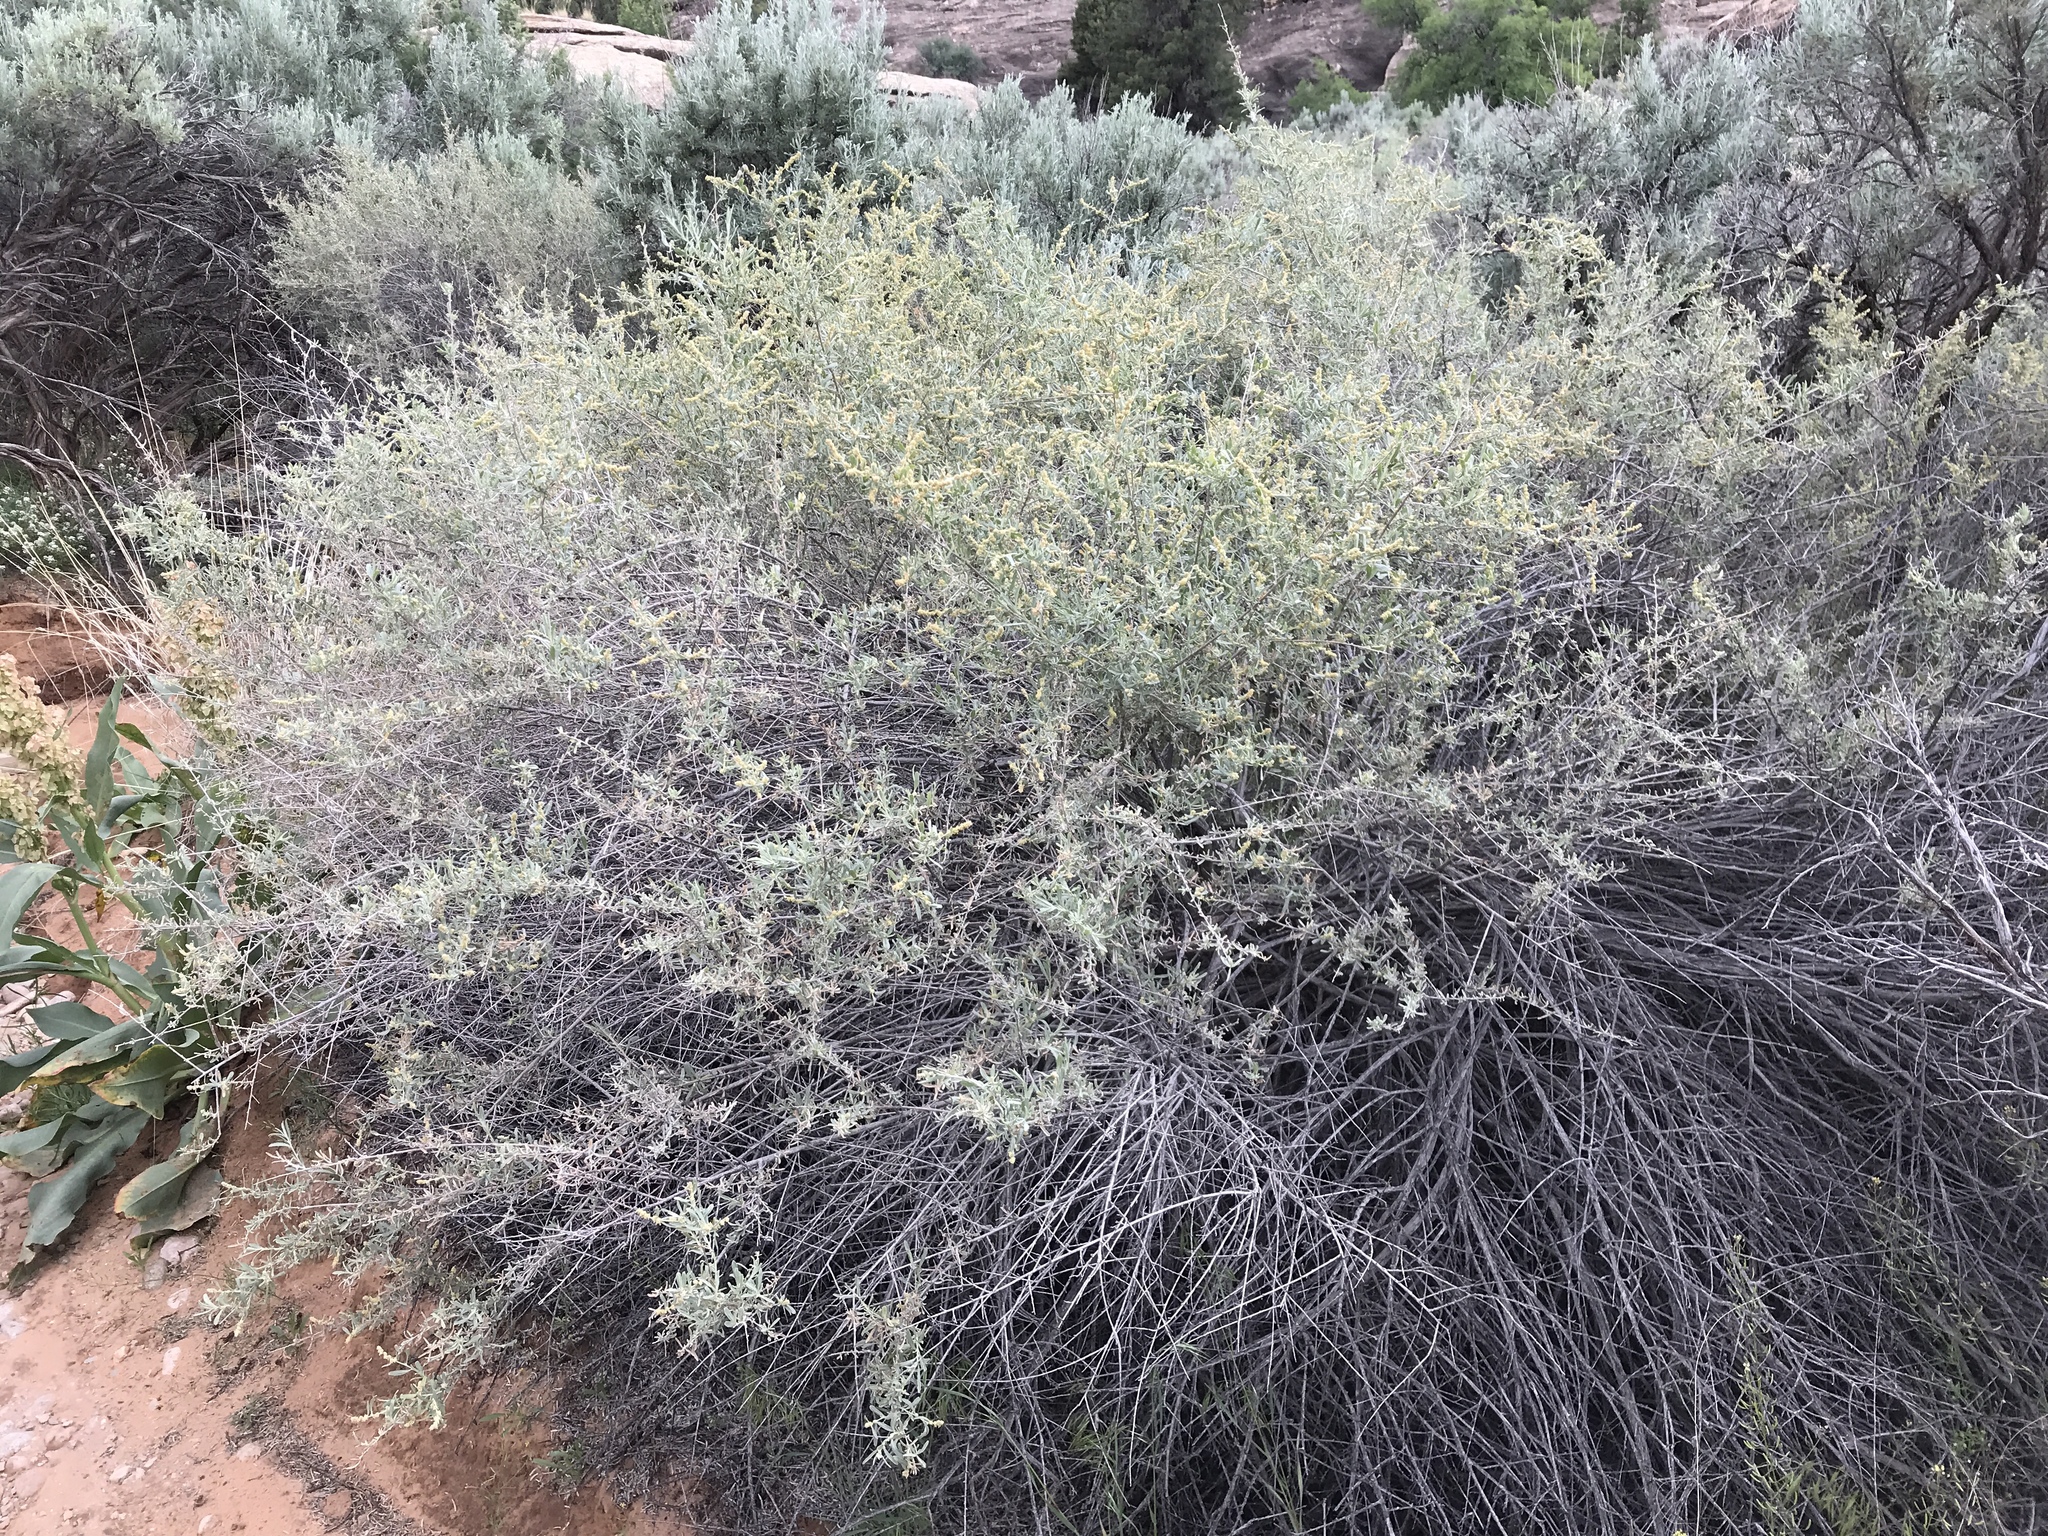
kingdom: Plantae
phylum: Tracheophyta
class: Magnoliopsida
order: Caryophyllales
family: Amaranthaceae
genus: Atriplex
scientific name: Atriplex canescens
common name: Four-wing saltbush
